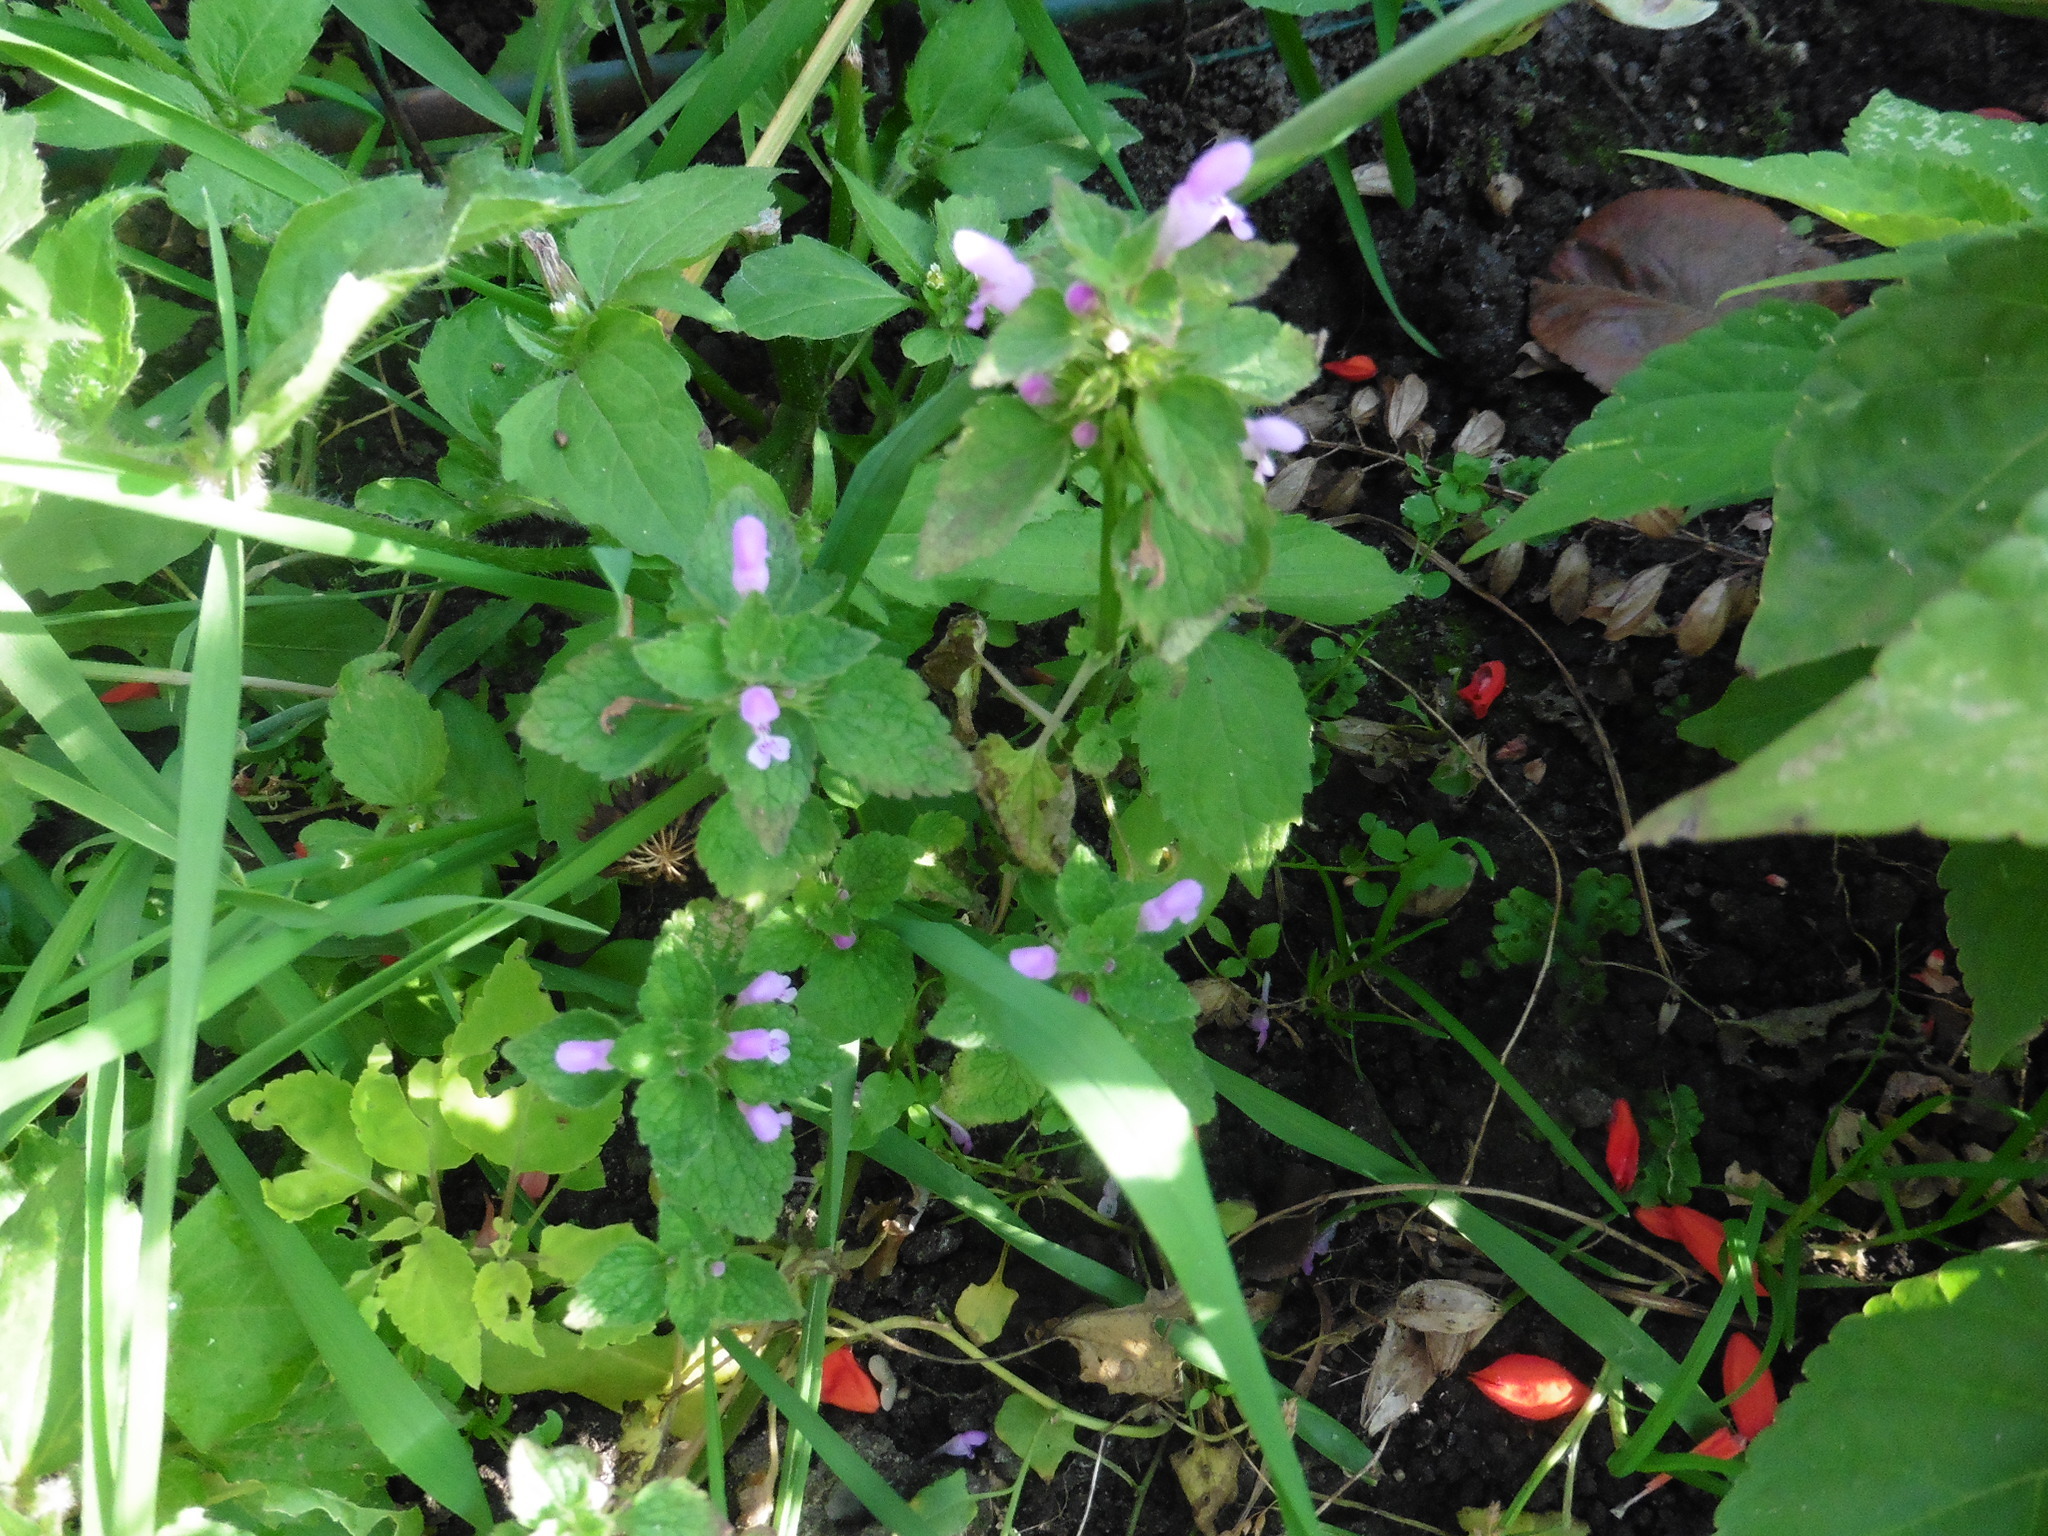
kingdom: Plantae
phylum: Tracheophyta
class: Magnoliopsida
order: Lamiales
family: Lamiaceae
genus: Lamium
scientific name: Lamium purpureum
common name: Red dead-nettle
